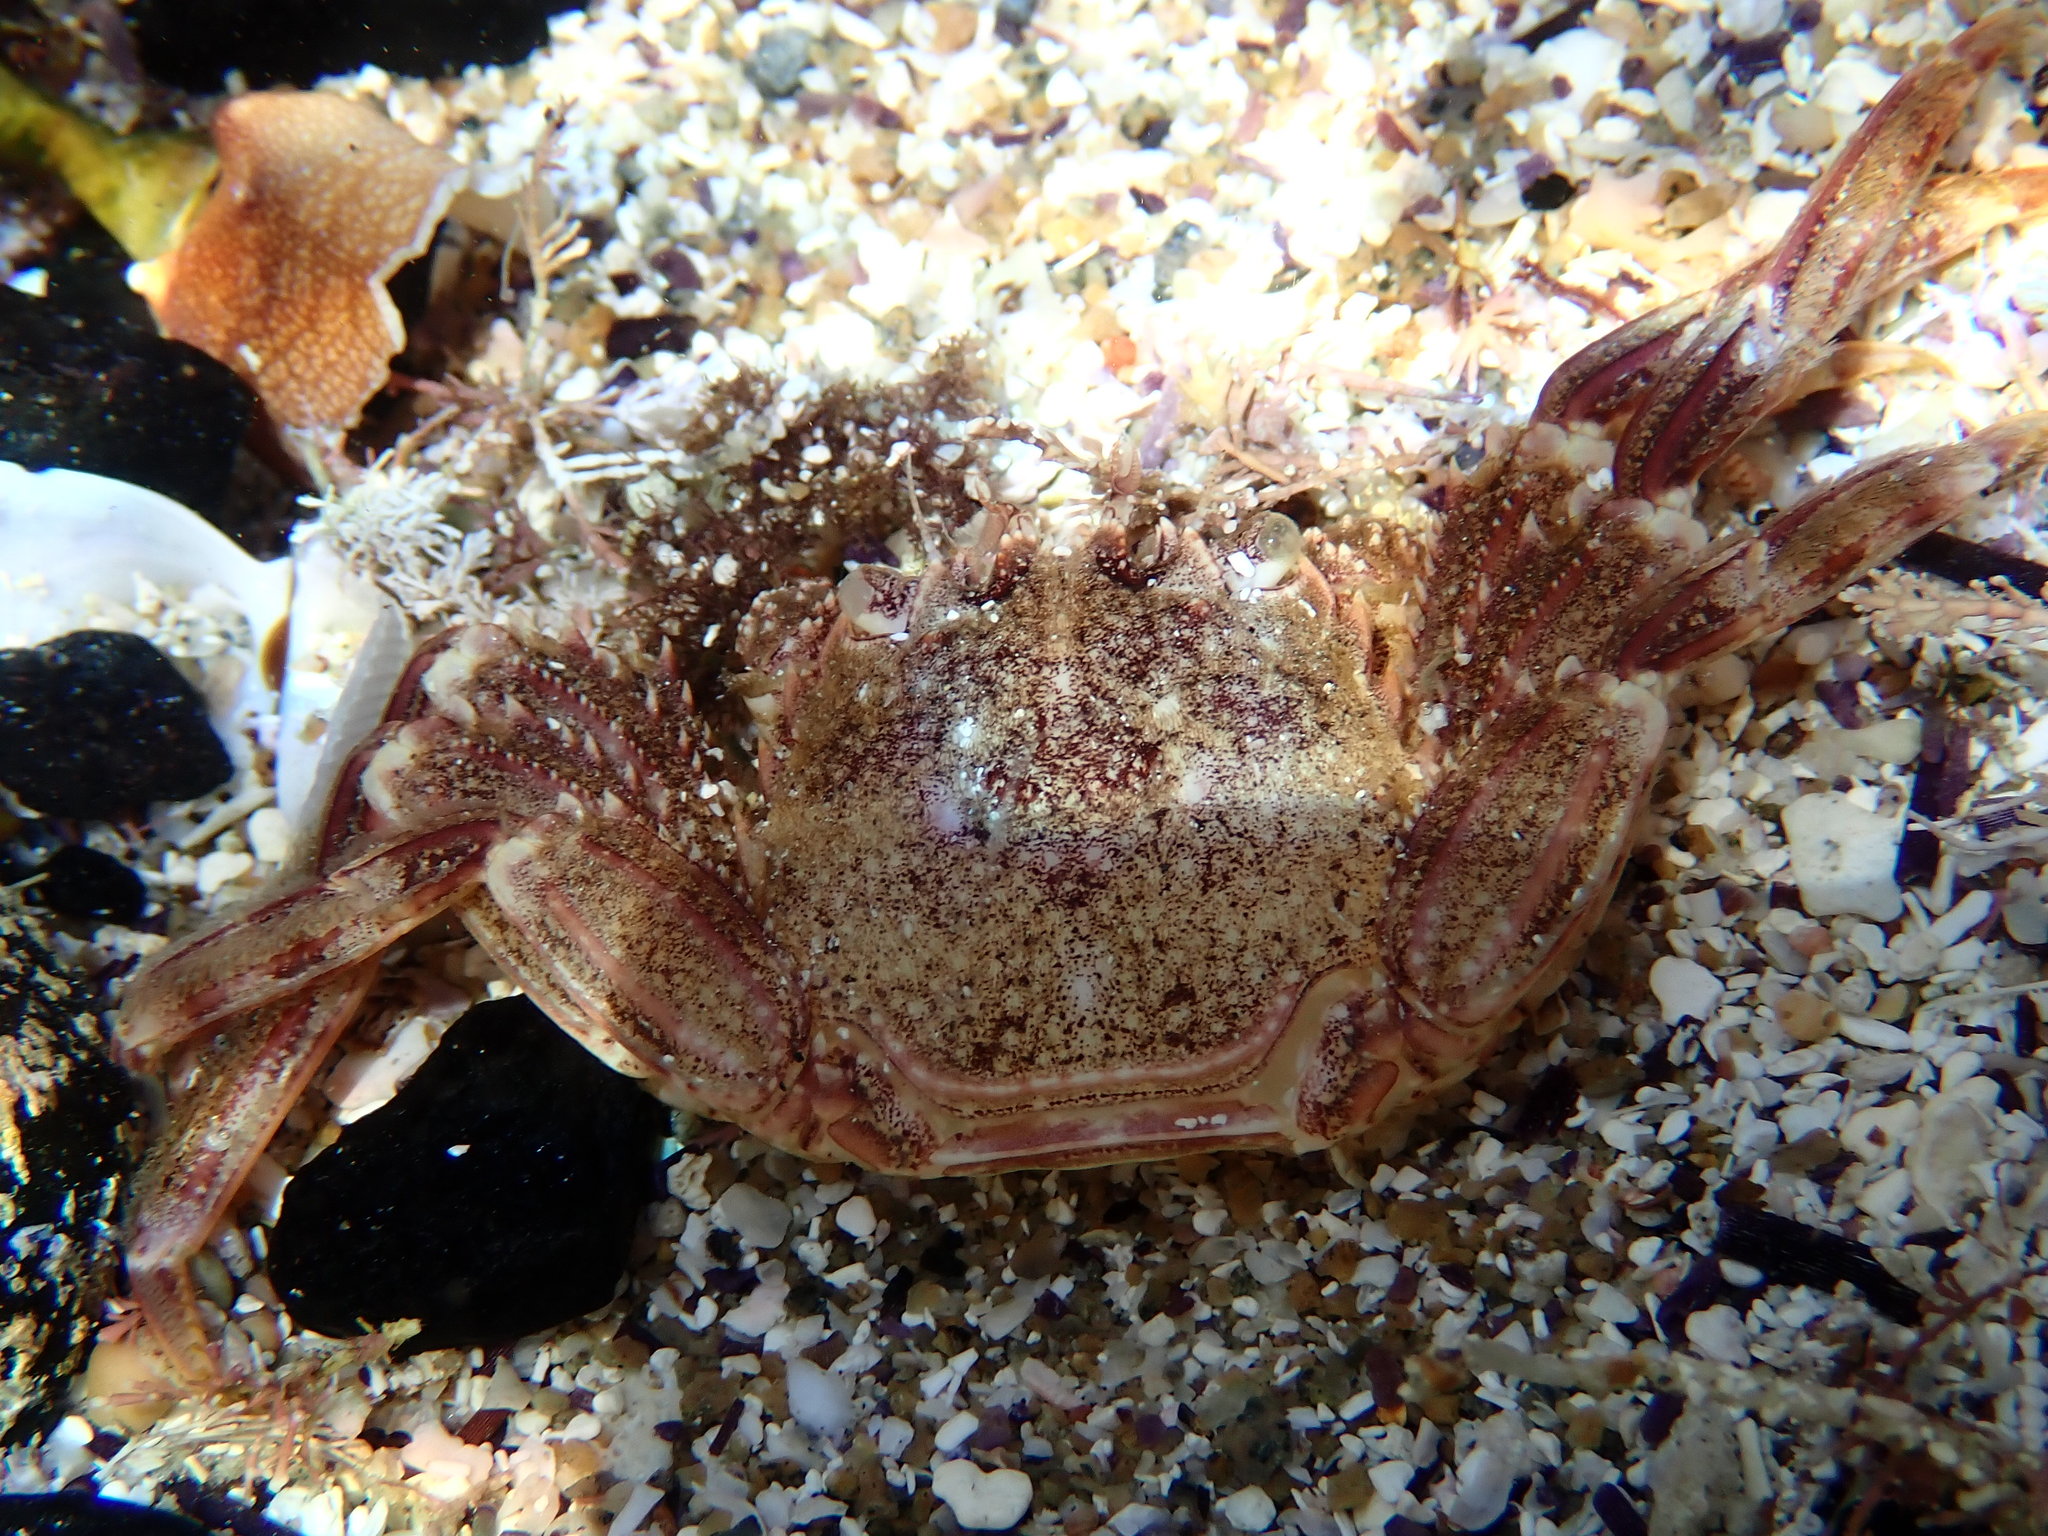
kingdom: Animalia
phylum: Arthropoda
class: Malacostraca
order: Decapoda
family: Plagusiidae
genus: Guinusia
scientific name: Guinusia chabrus
